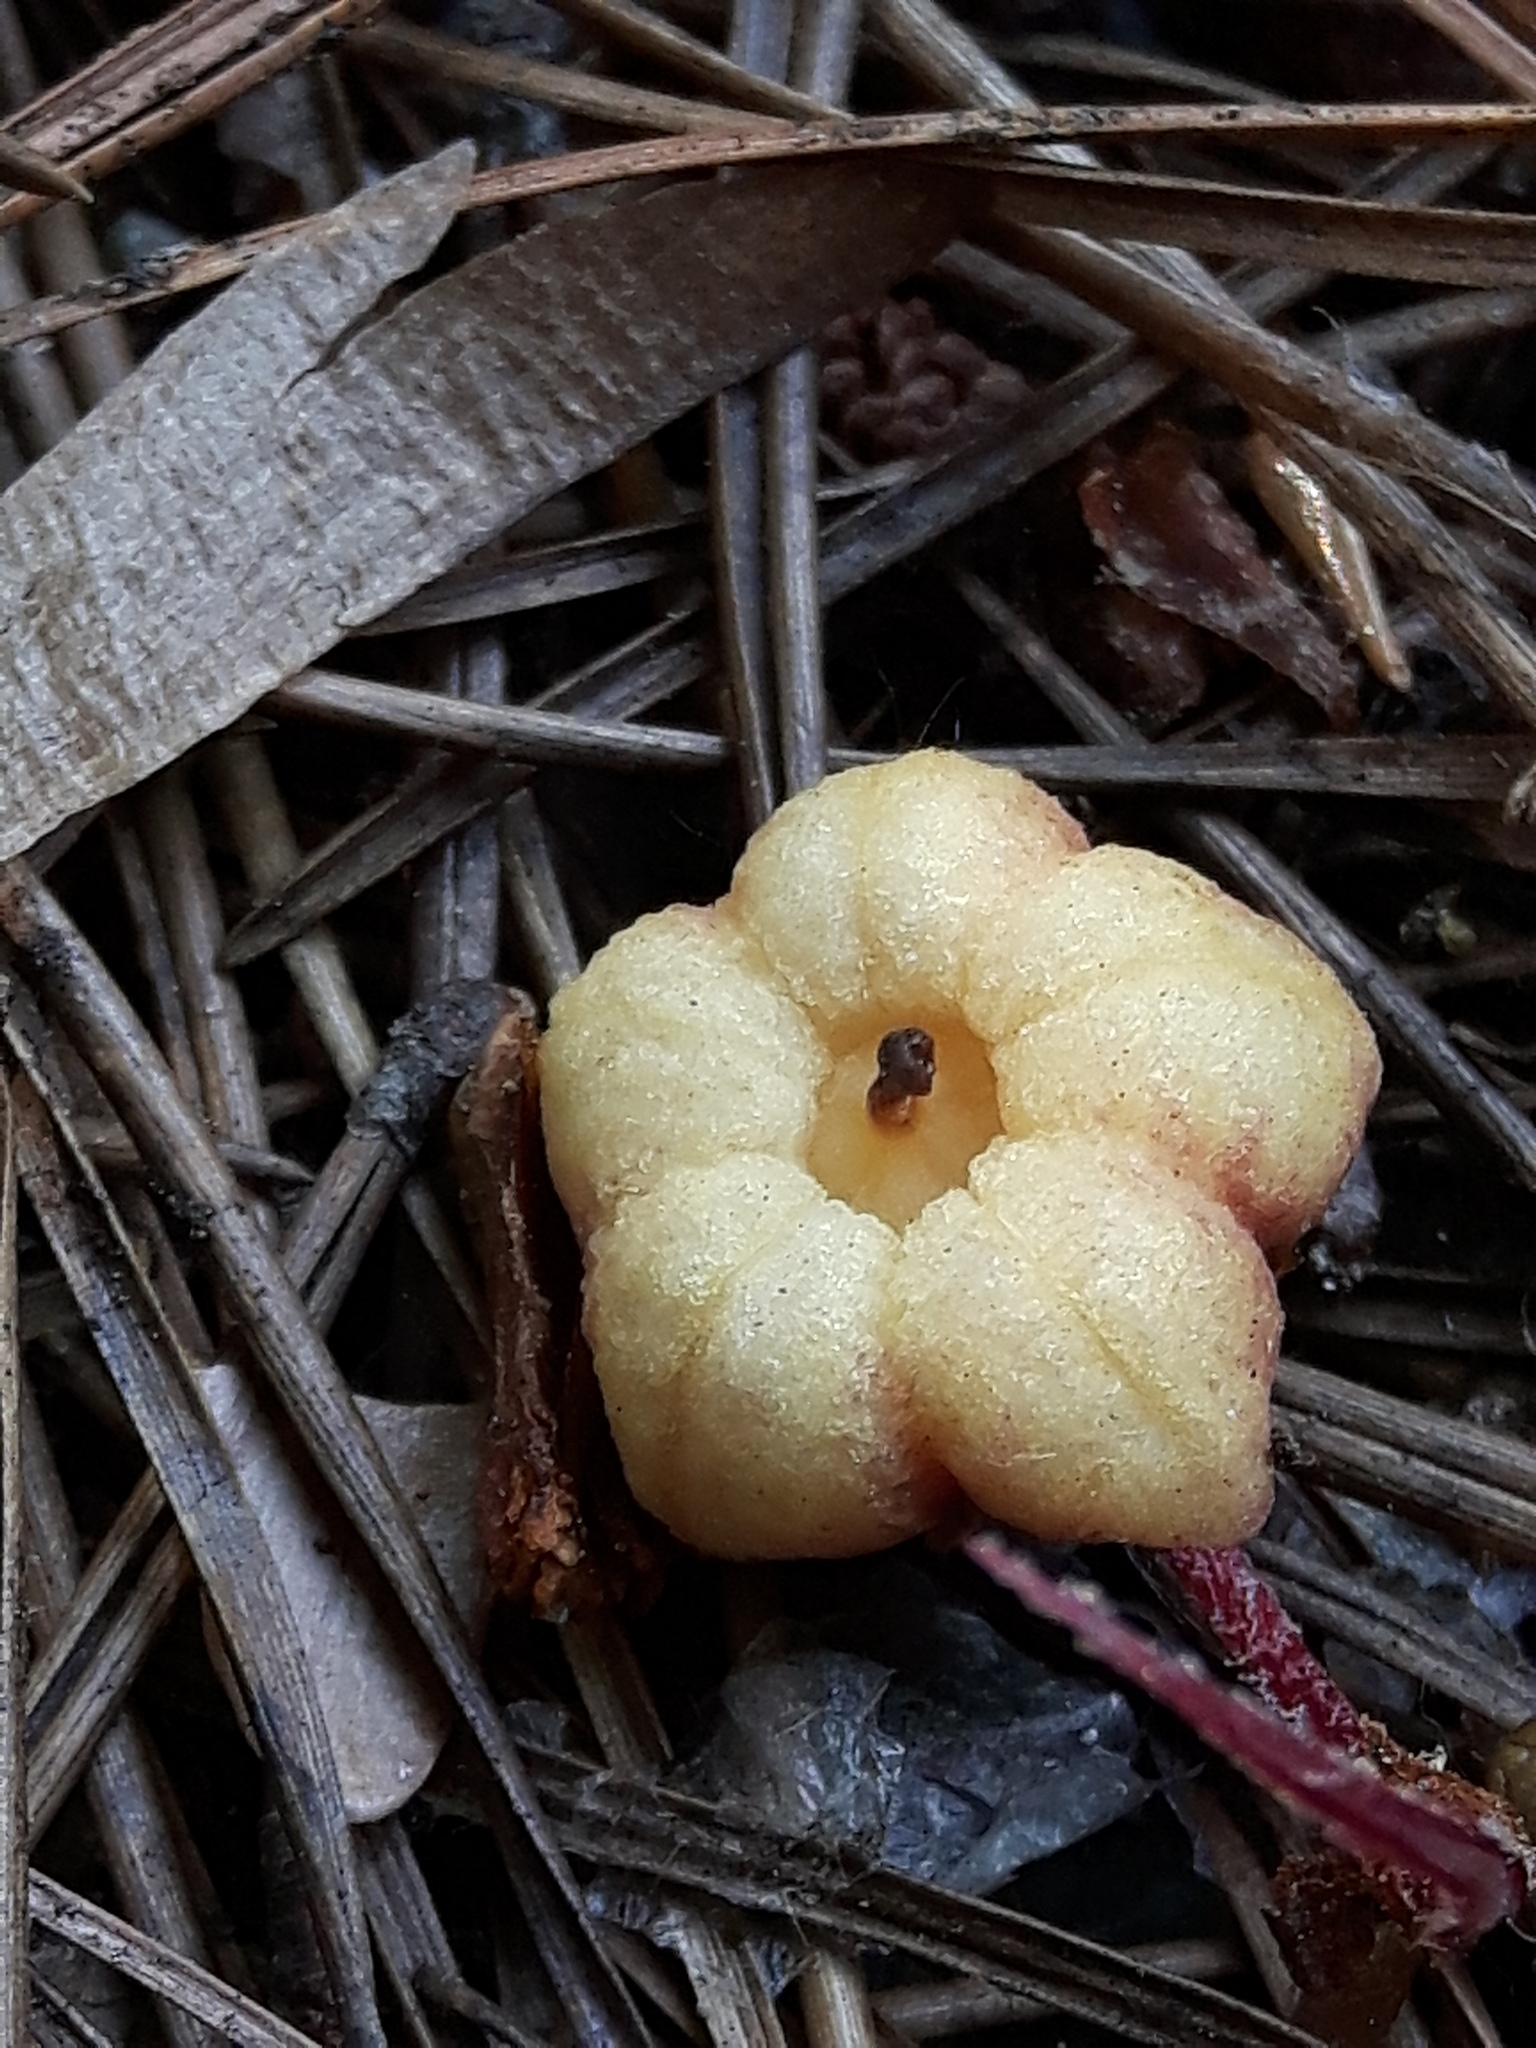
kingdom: Plantae
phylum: Tracheophyta
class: Magnoliopsida
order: Ericales
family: Ericaceae
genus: Pterospora
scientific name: Pterospora andromedea
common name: Giant bird's-nest
